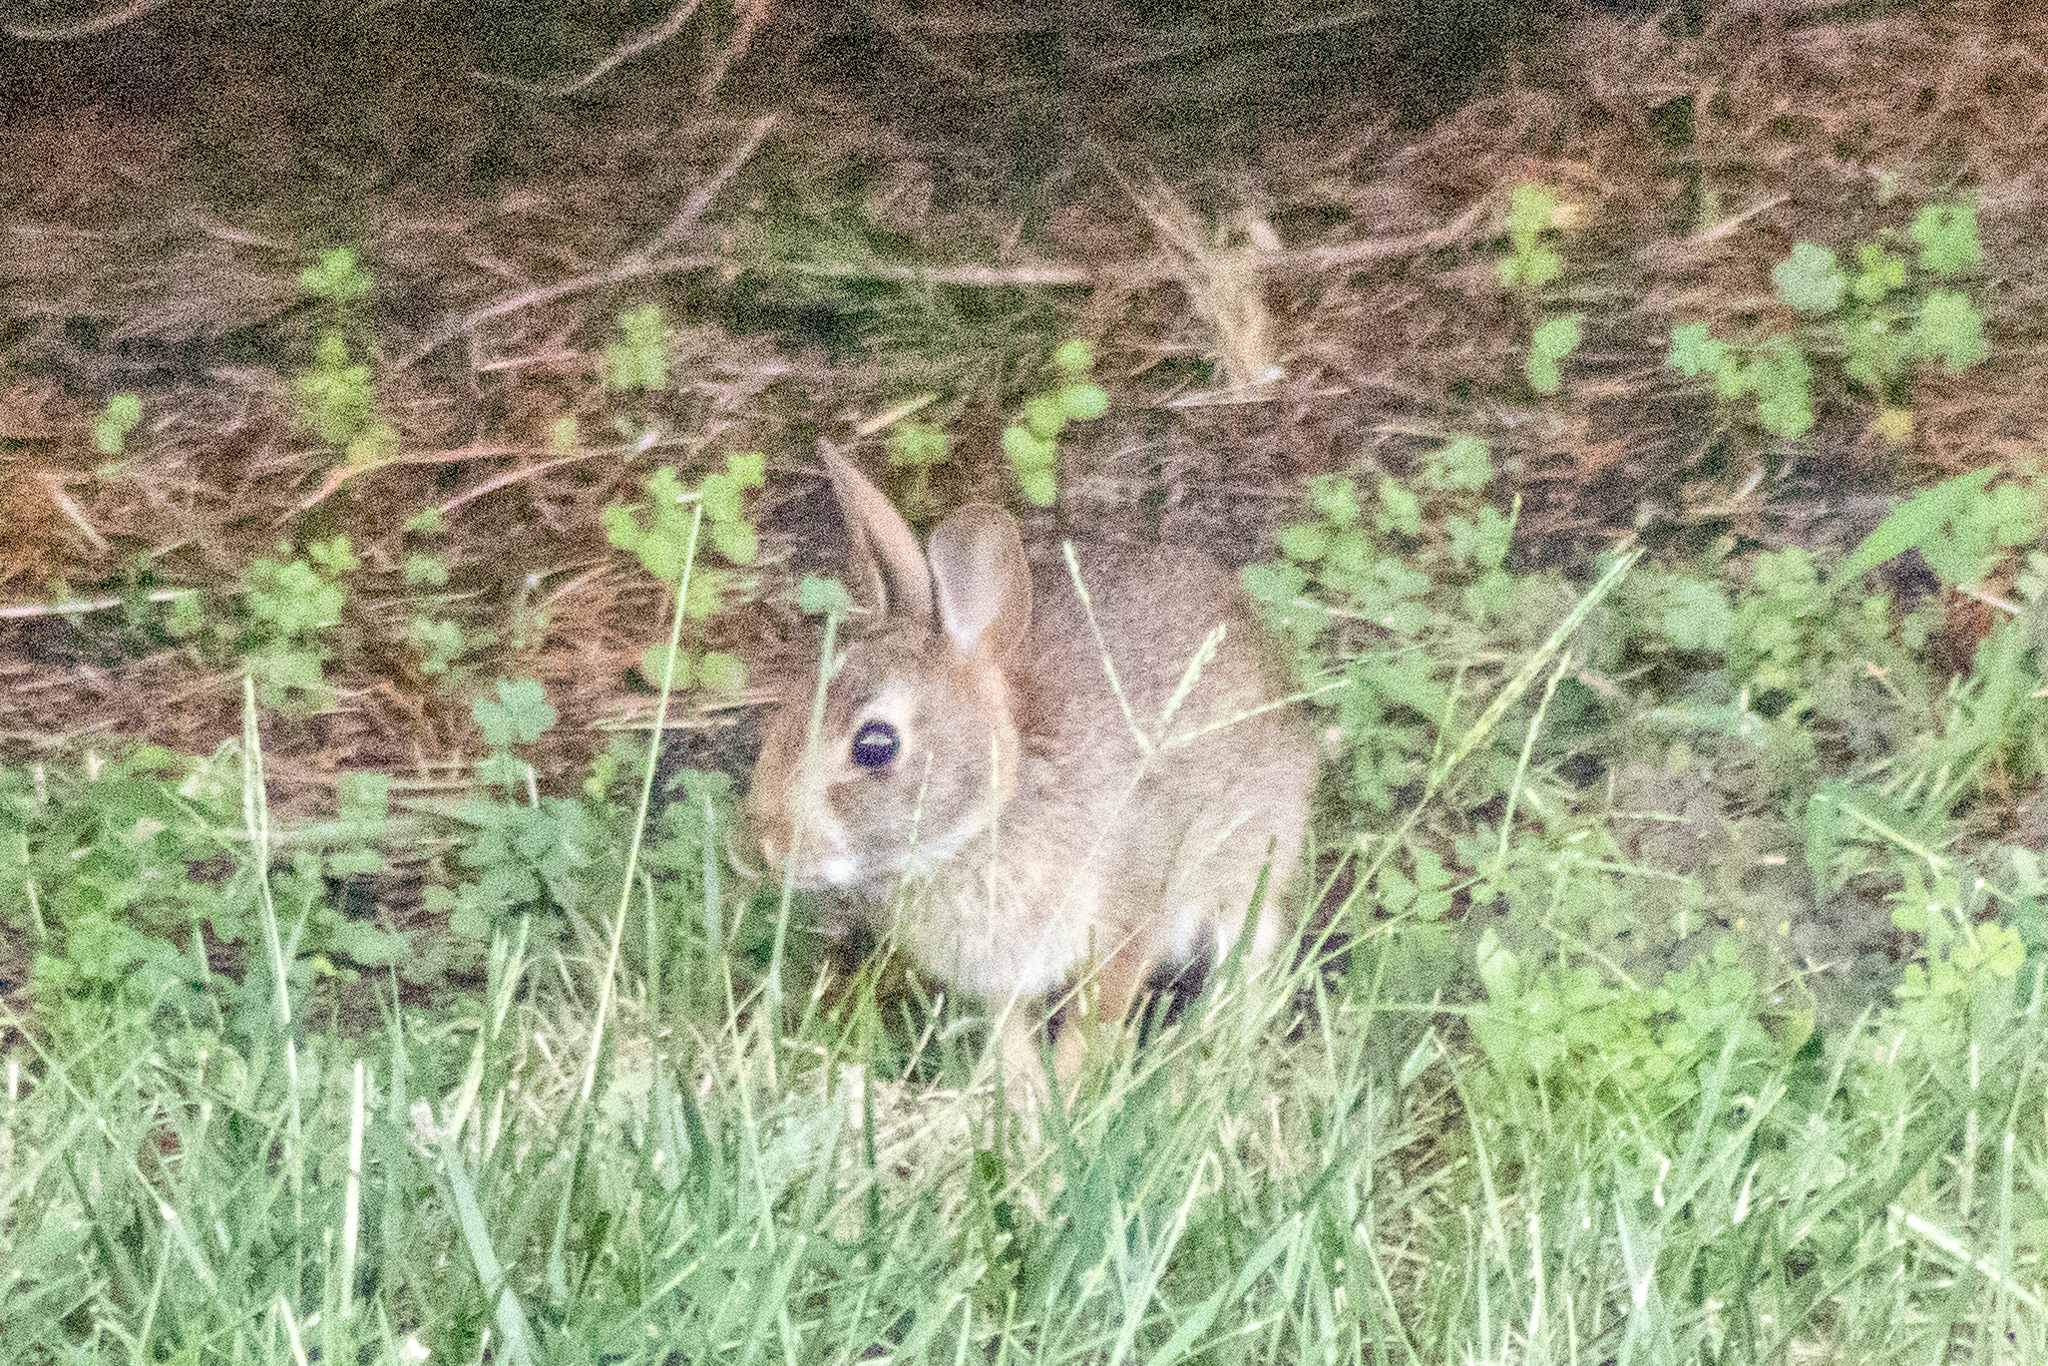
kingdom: Animalia
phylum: Chordata
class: Mammalia
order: Lagomorpha
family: Leporidae
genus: Sylvilagus
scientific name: Sylvilagus floridanus
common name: Eastern cottontail
